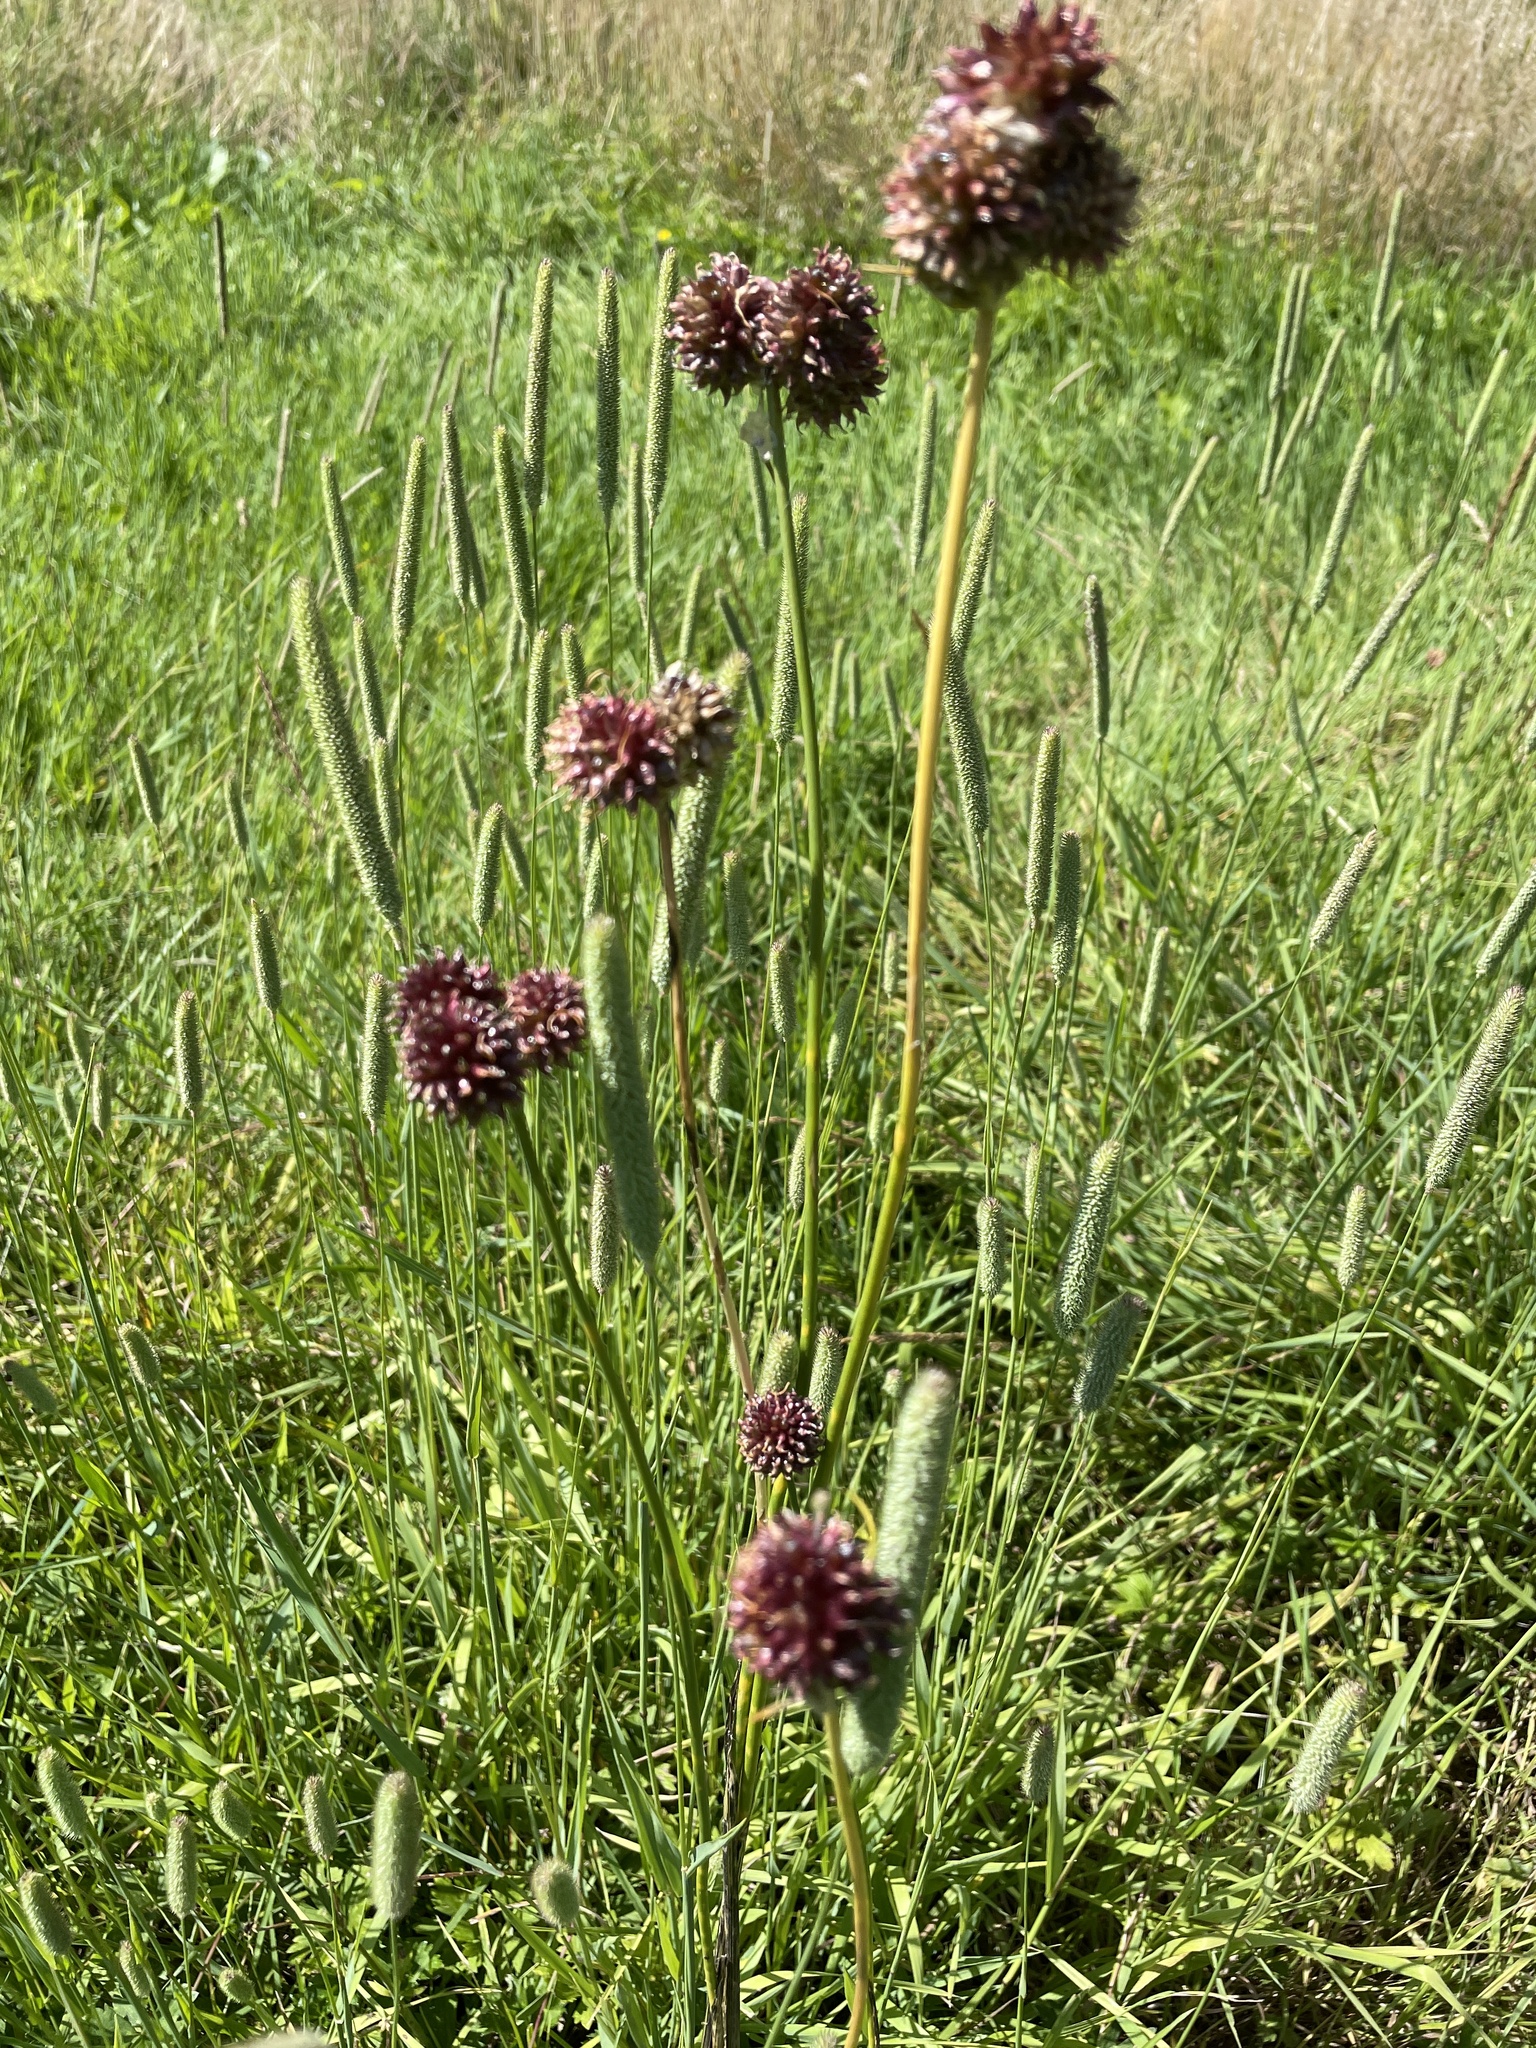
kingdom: Plantae
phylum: Tracheophyta
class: Liliopsida
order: Asparagales
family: Amaryllidaceae
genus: Allium
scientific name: Allium vineale
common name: Crow garlic
